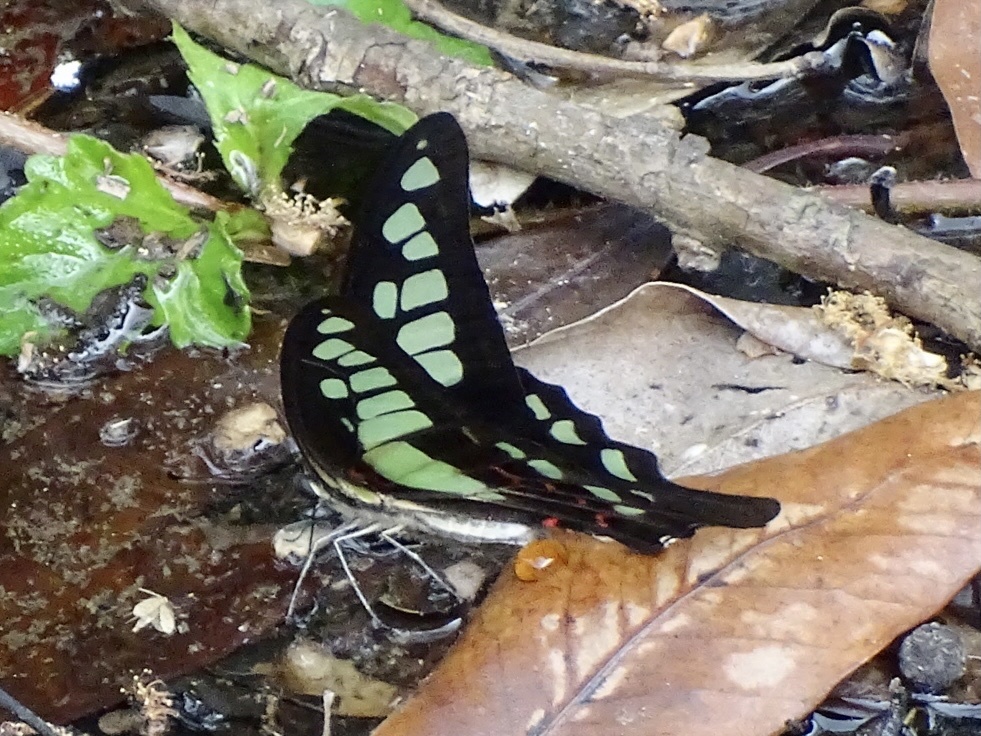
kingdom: Animalia
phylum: Arthropoda
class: Insecta
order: Lepidoptera
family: Papilionidae
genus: Graphium
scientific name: Graphium cloanthus
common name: Glassy bluebottle
